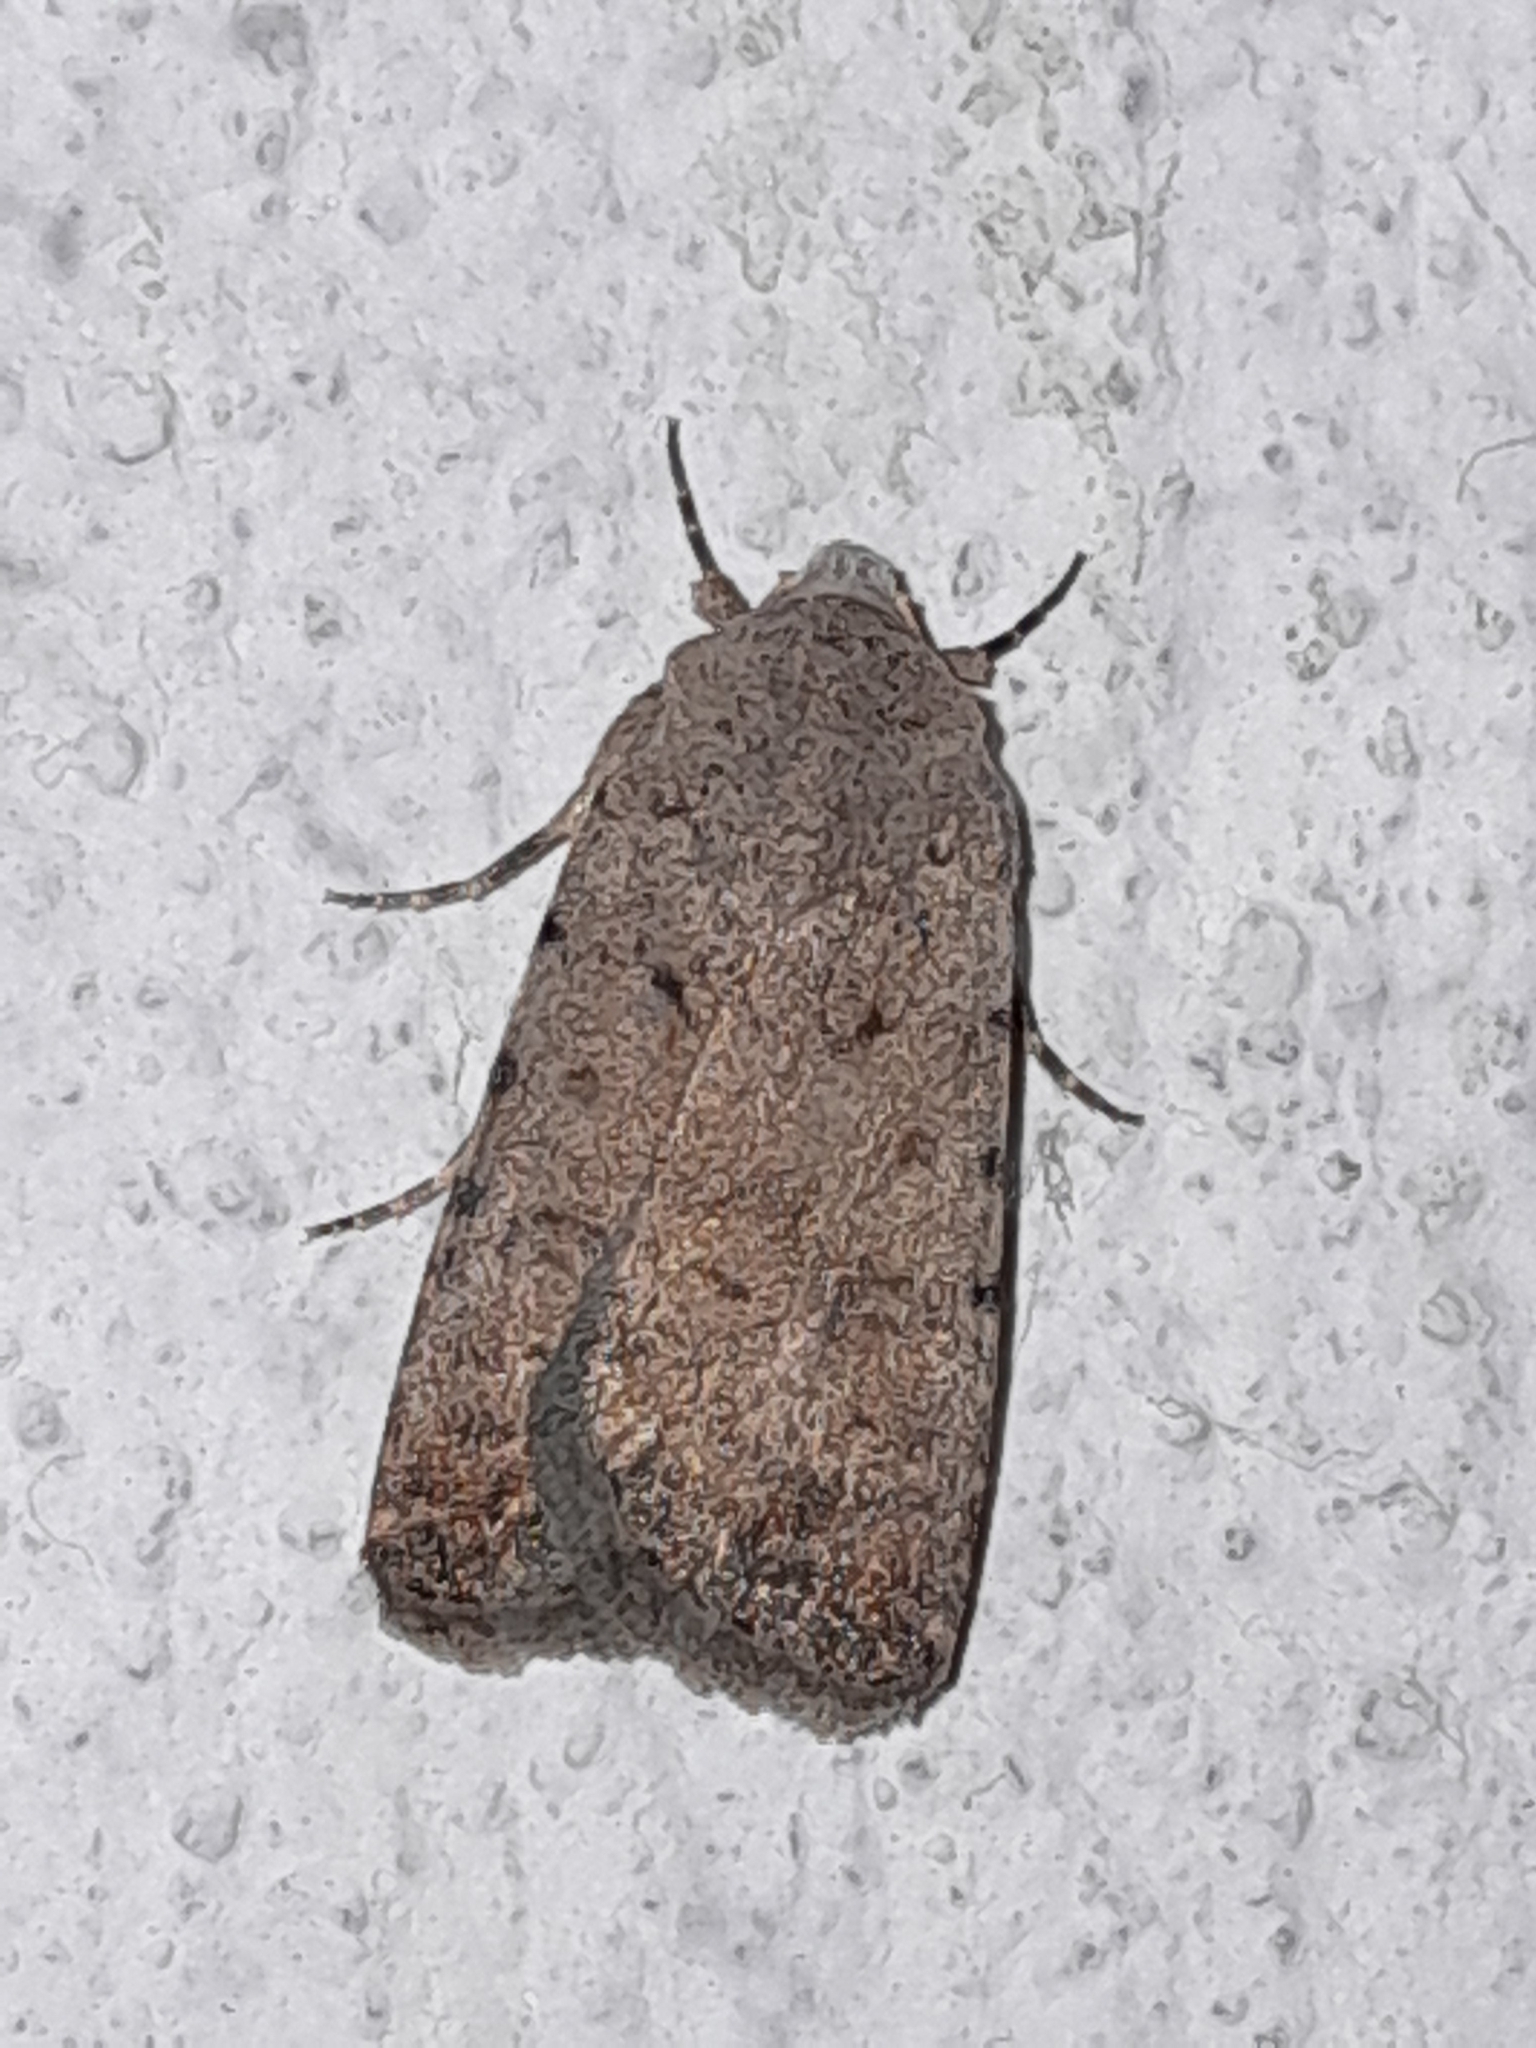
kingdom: Animalia
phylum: Arthropoda
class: Insecta
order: Lepidoptera
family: Noctuidae
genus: Caradrina
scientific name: Caradrina clavipalpis
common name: Pale mottled willow
